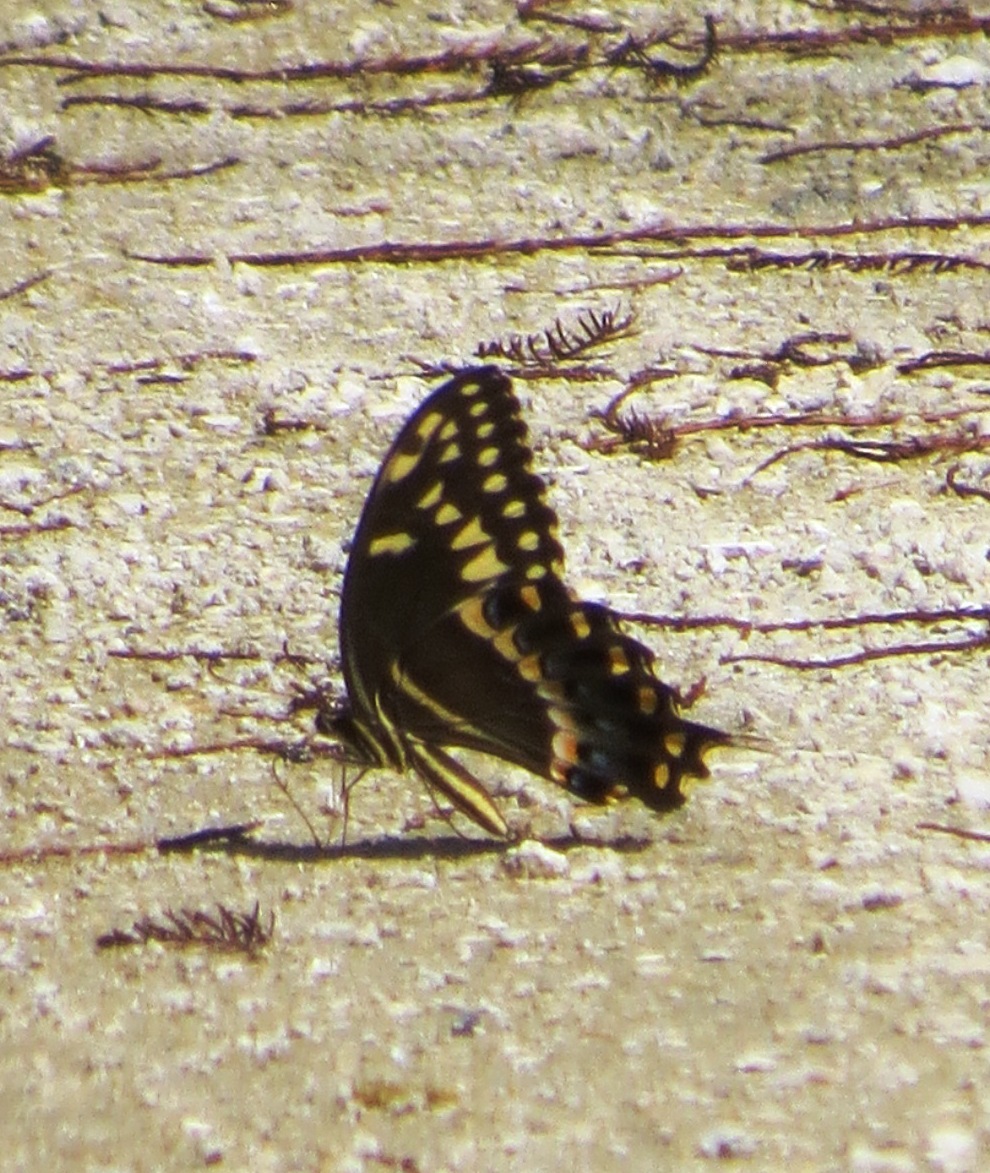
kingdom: Animalia
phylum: Arthropoda
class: Insecta
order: Lepidoptera
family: Papilionidae
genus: Papilio
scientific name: Papilio palamedes
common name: Palamedes swallowtail
